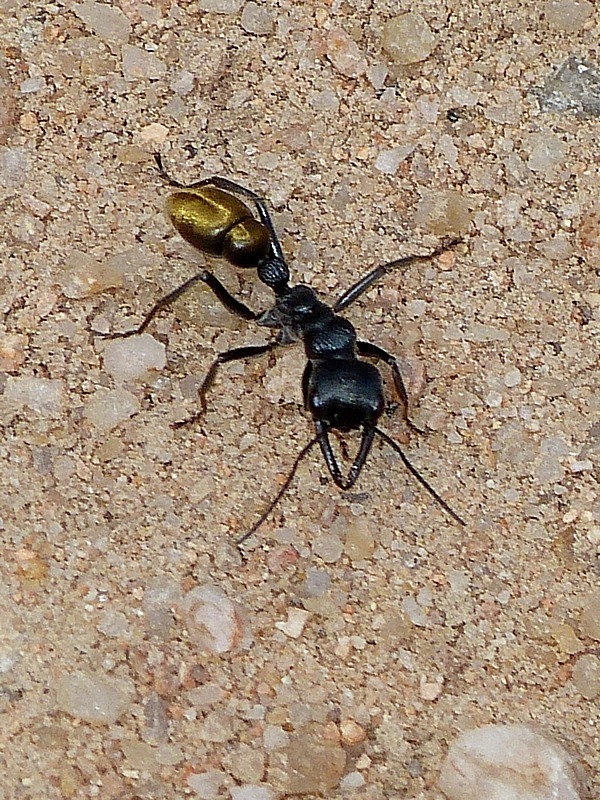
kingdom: Animalia
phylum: Arthropoda
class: Insecta
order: Hymenoptera
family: Formicidae
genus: Myrmecia
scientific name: Myrmecia piliventris
